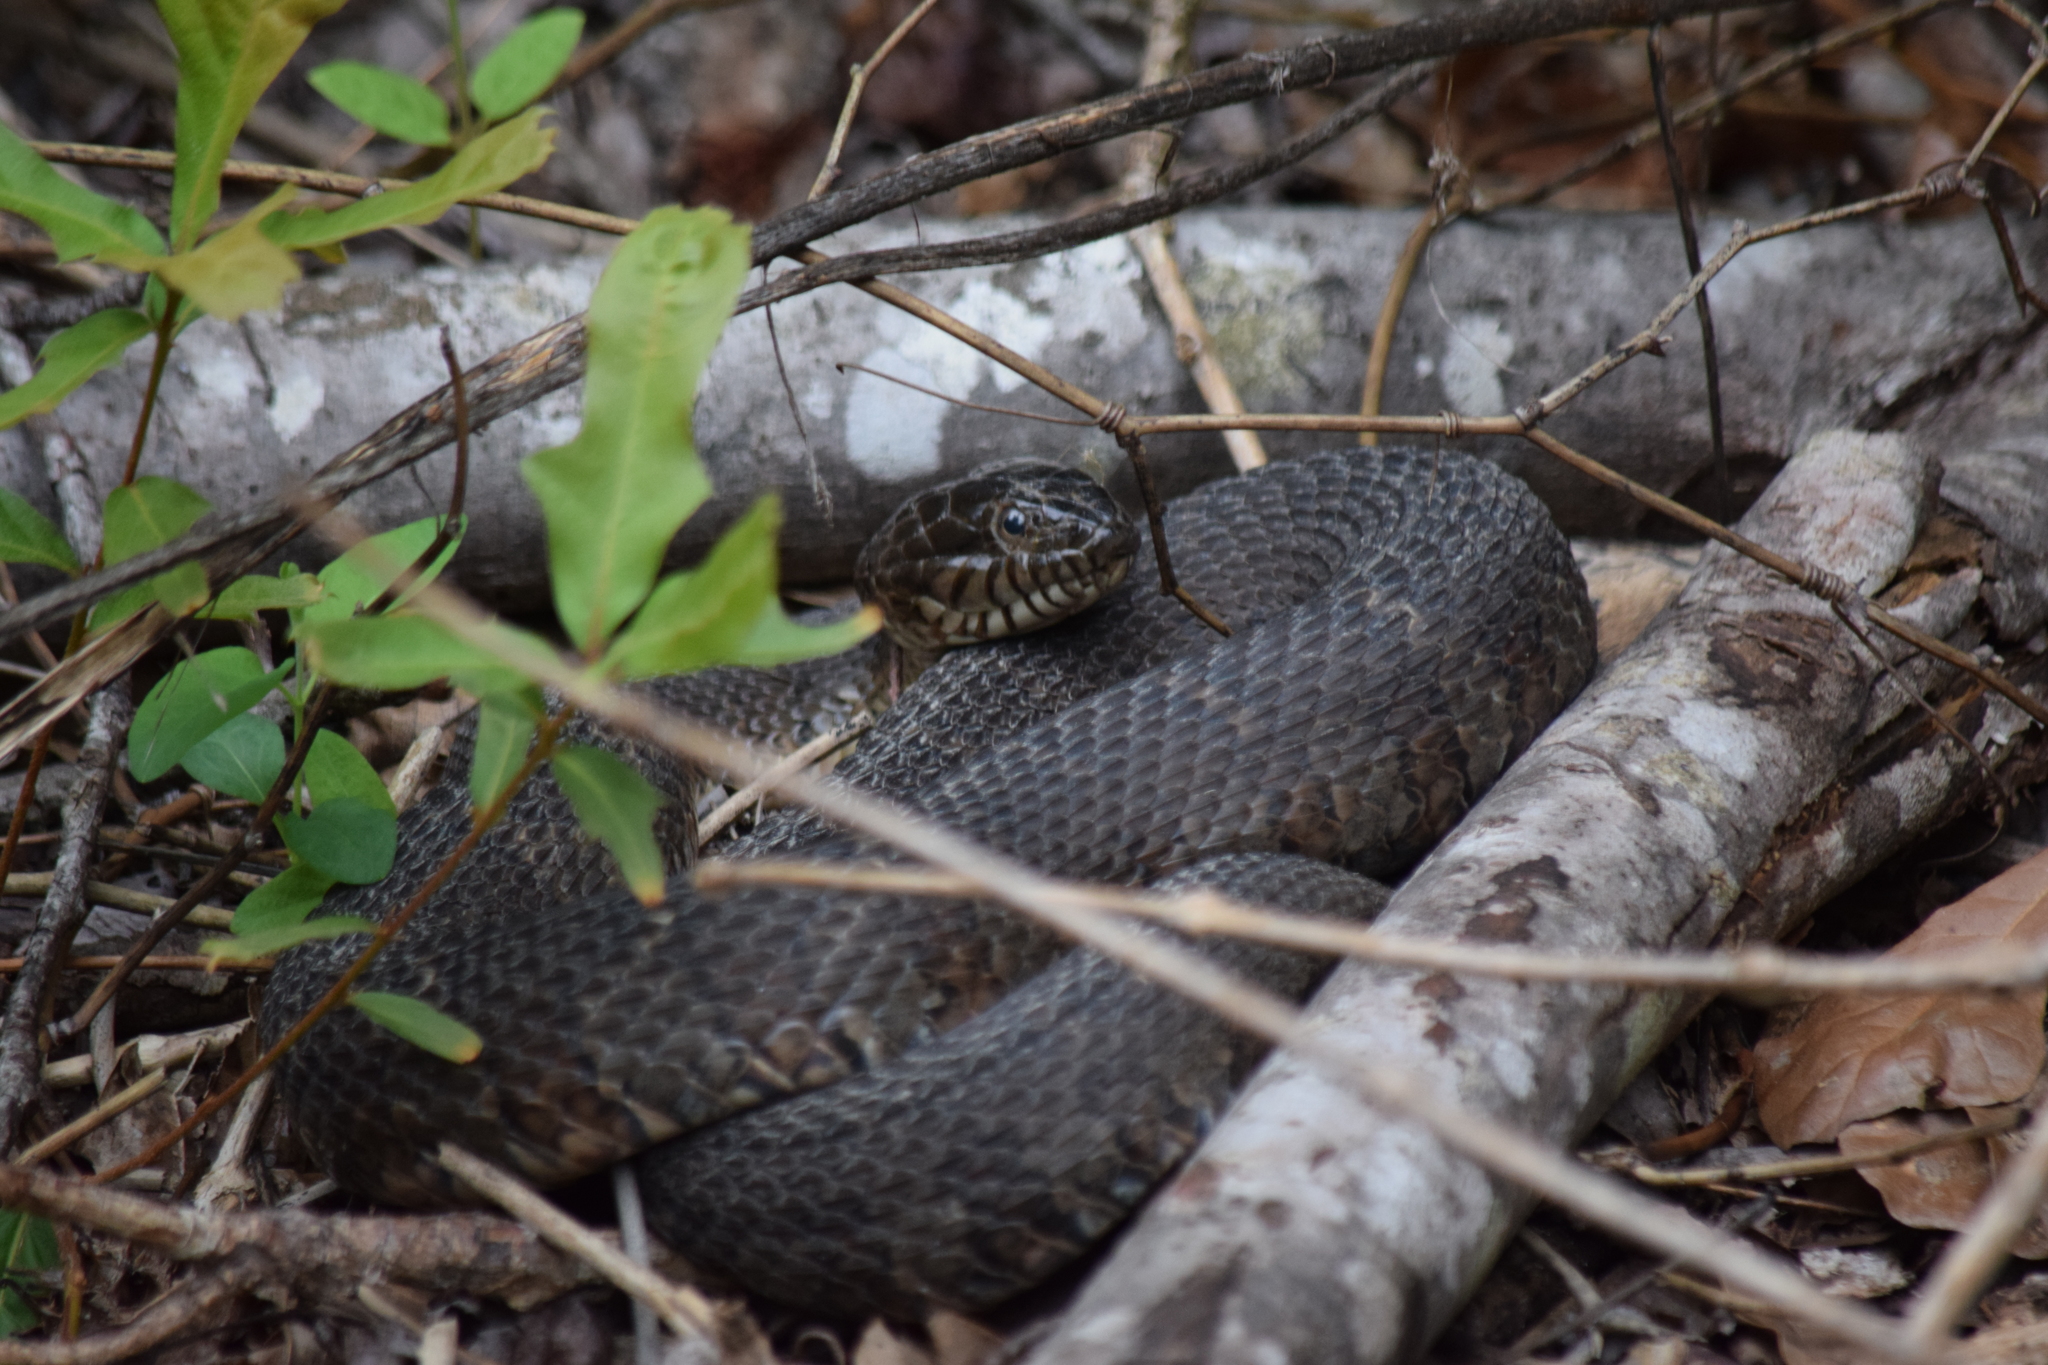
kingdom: Animalia
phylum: Chordata
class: Squamata
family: Colubridae
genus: Nerodia
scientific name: Nerodia sipedon
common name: Northern water snake
